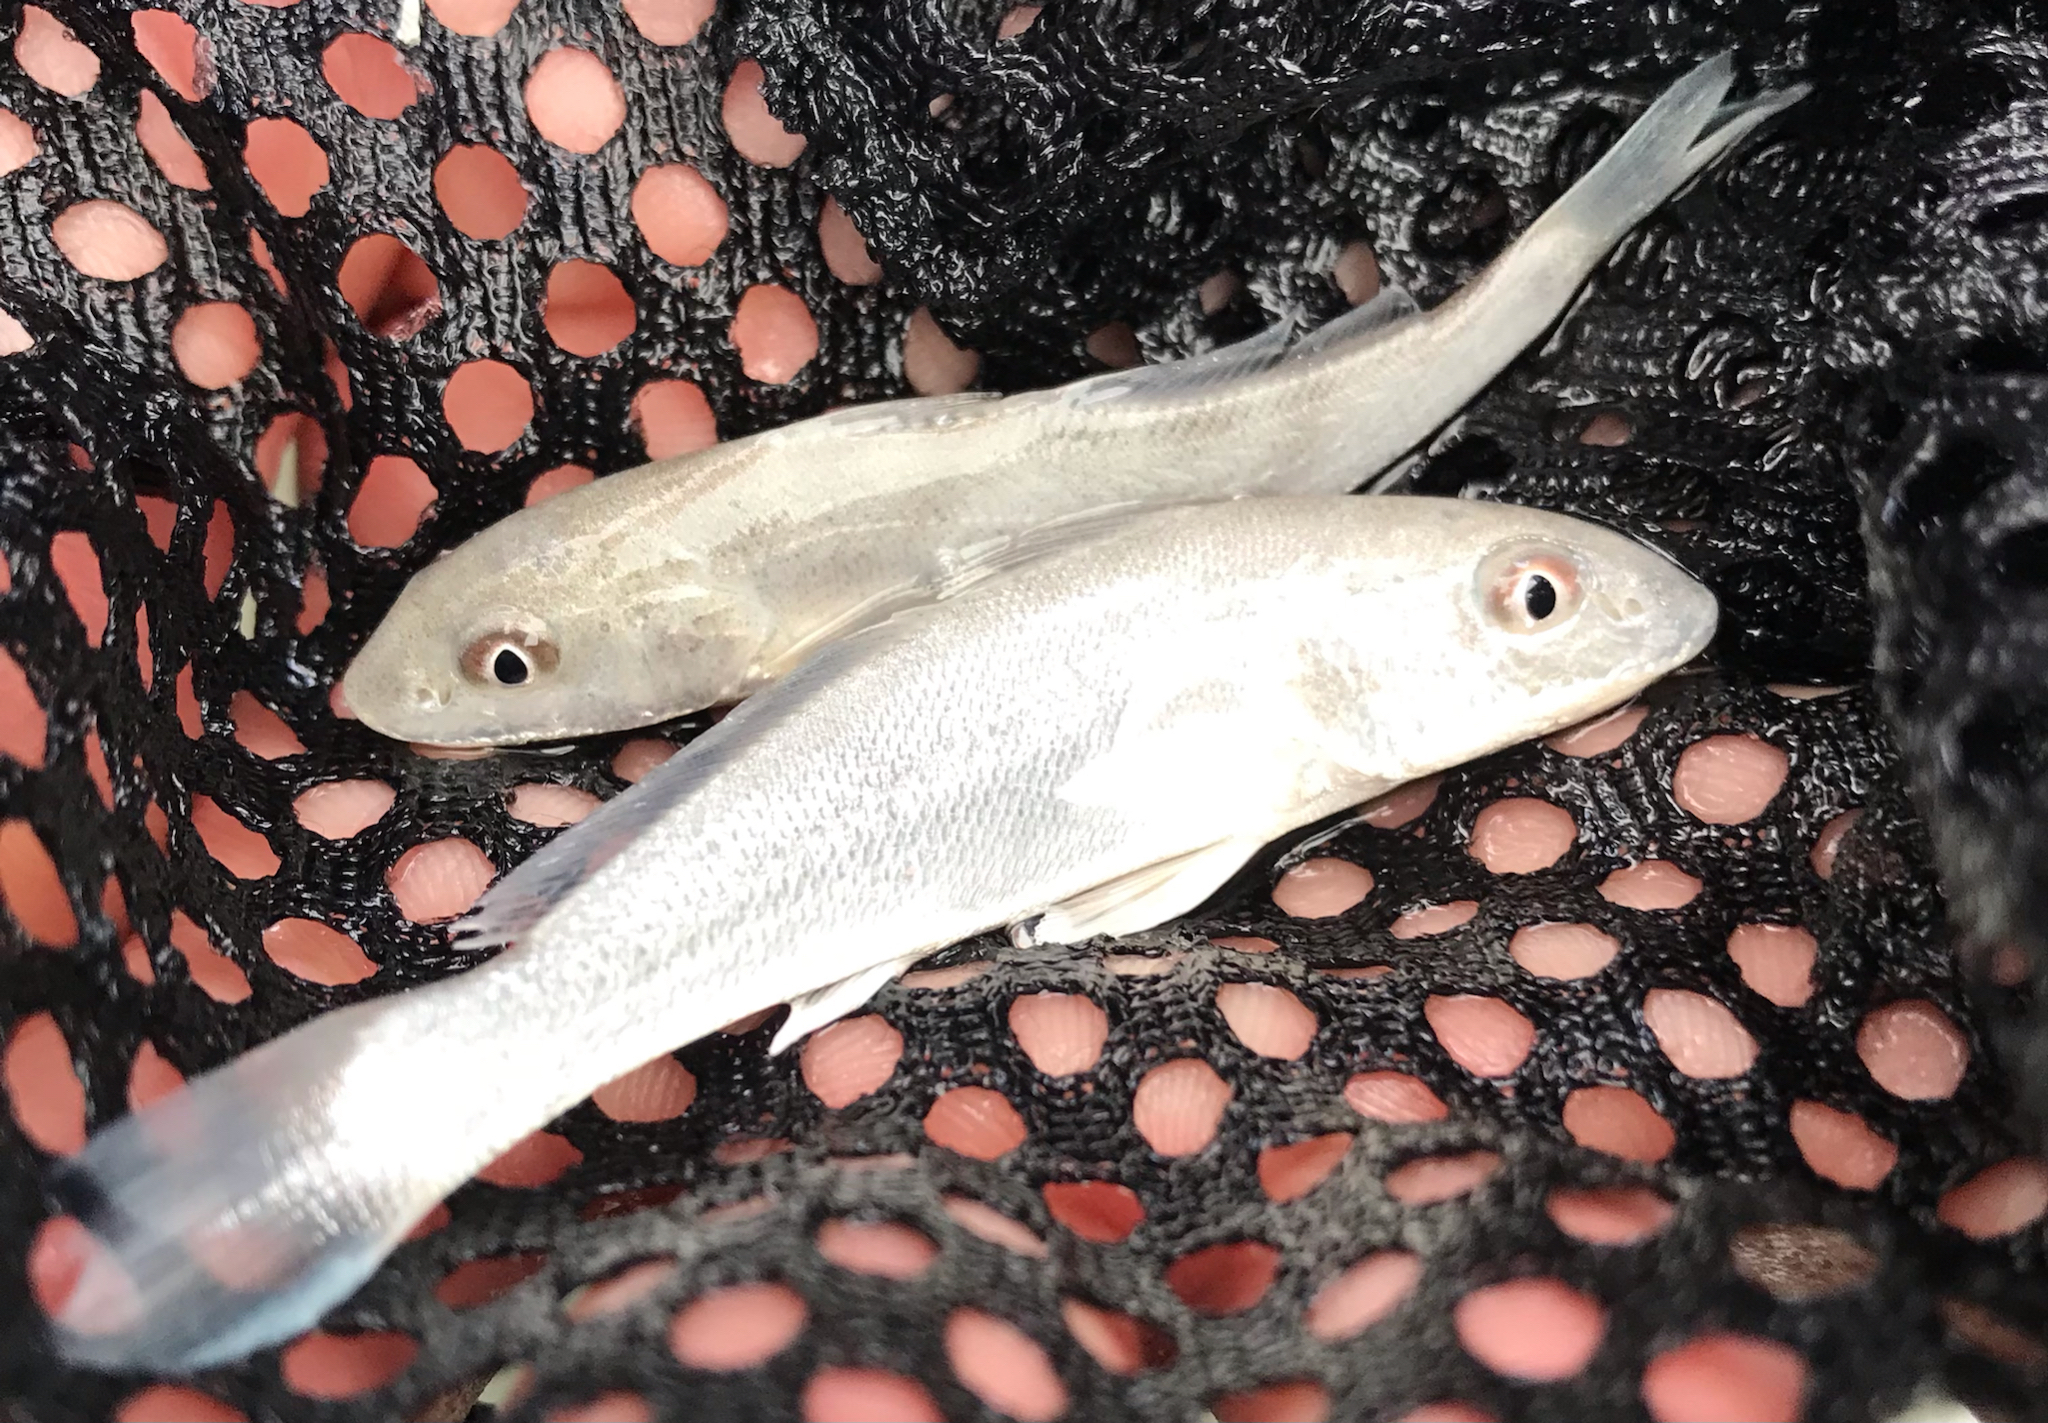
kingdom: Animalia
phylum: Chordata
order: Perciformes
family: Sciaenidae
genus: Menticirrhus
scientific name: Menticirrhus littoralis
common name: Gulf kingcroaker
